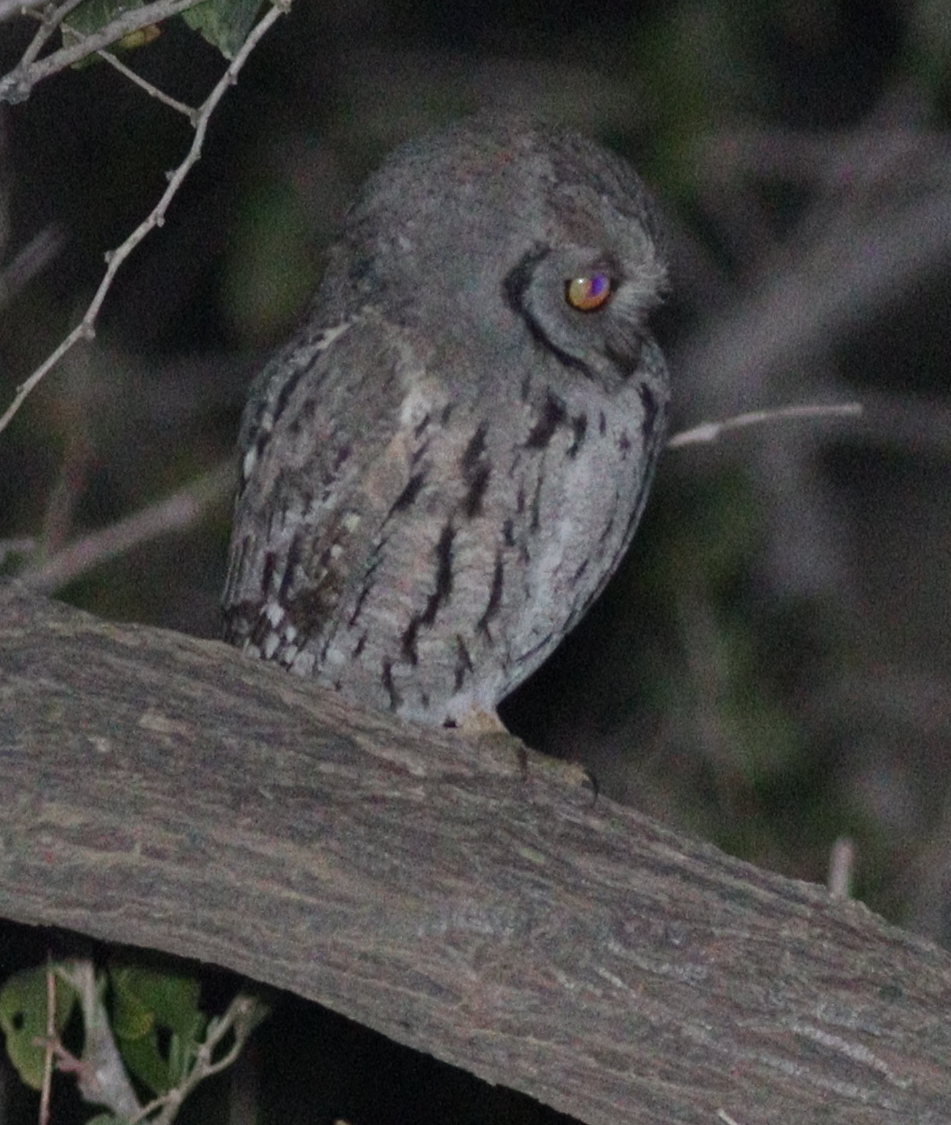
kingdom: Animalia
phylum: Chordata
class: Aves
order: Strigiformes
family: Strigidae
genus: Otus
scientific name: Otus pamelae
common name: Arabian scops owl
